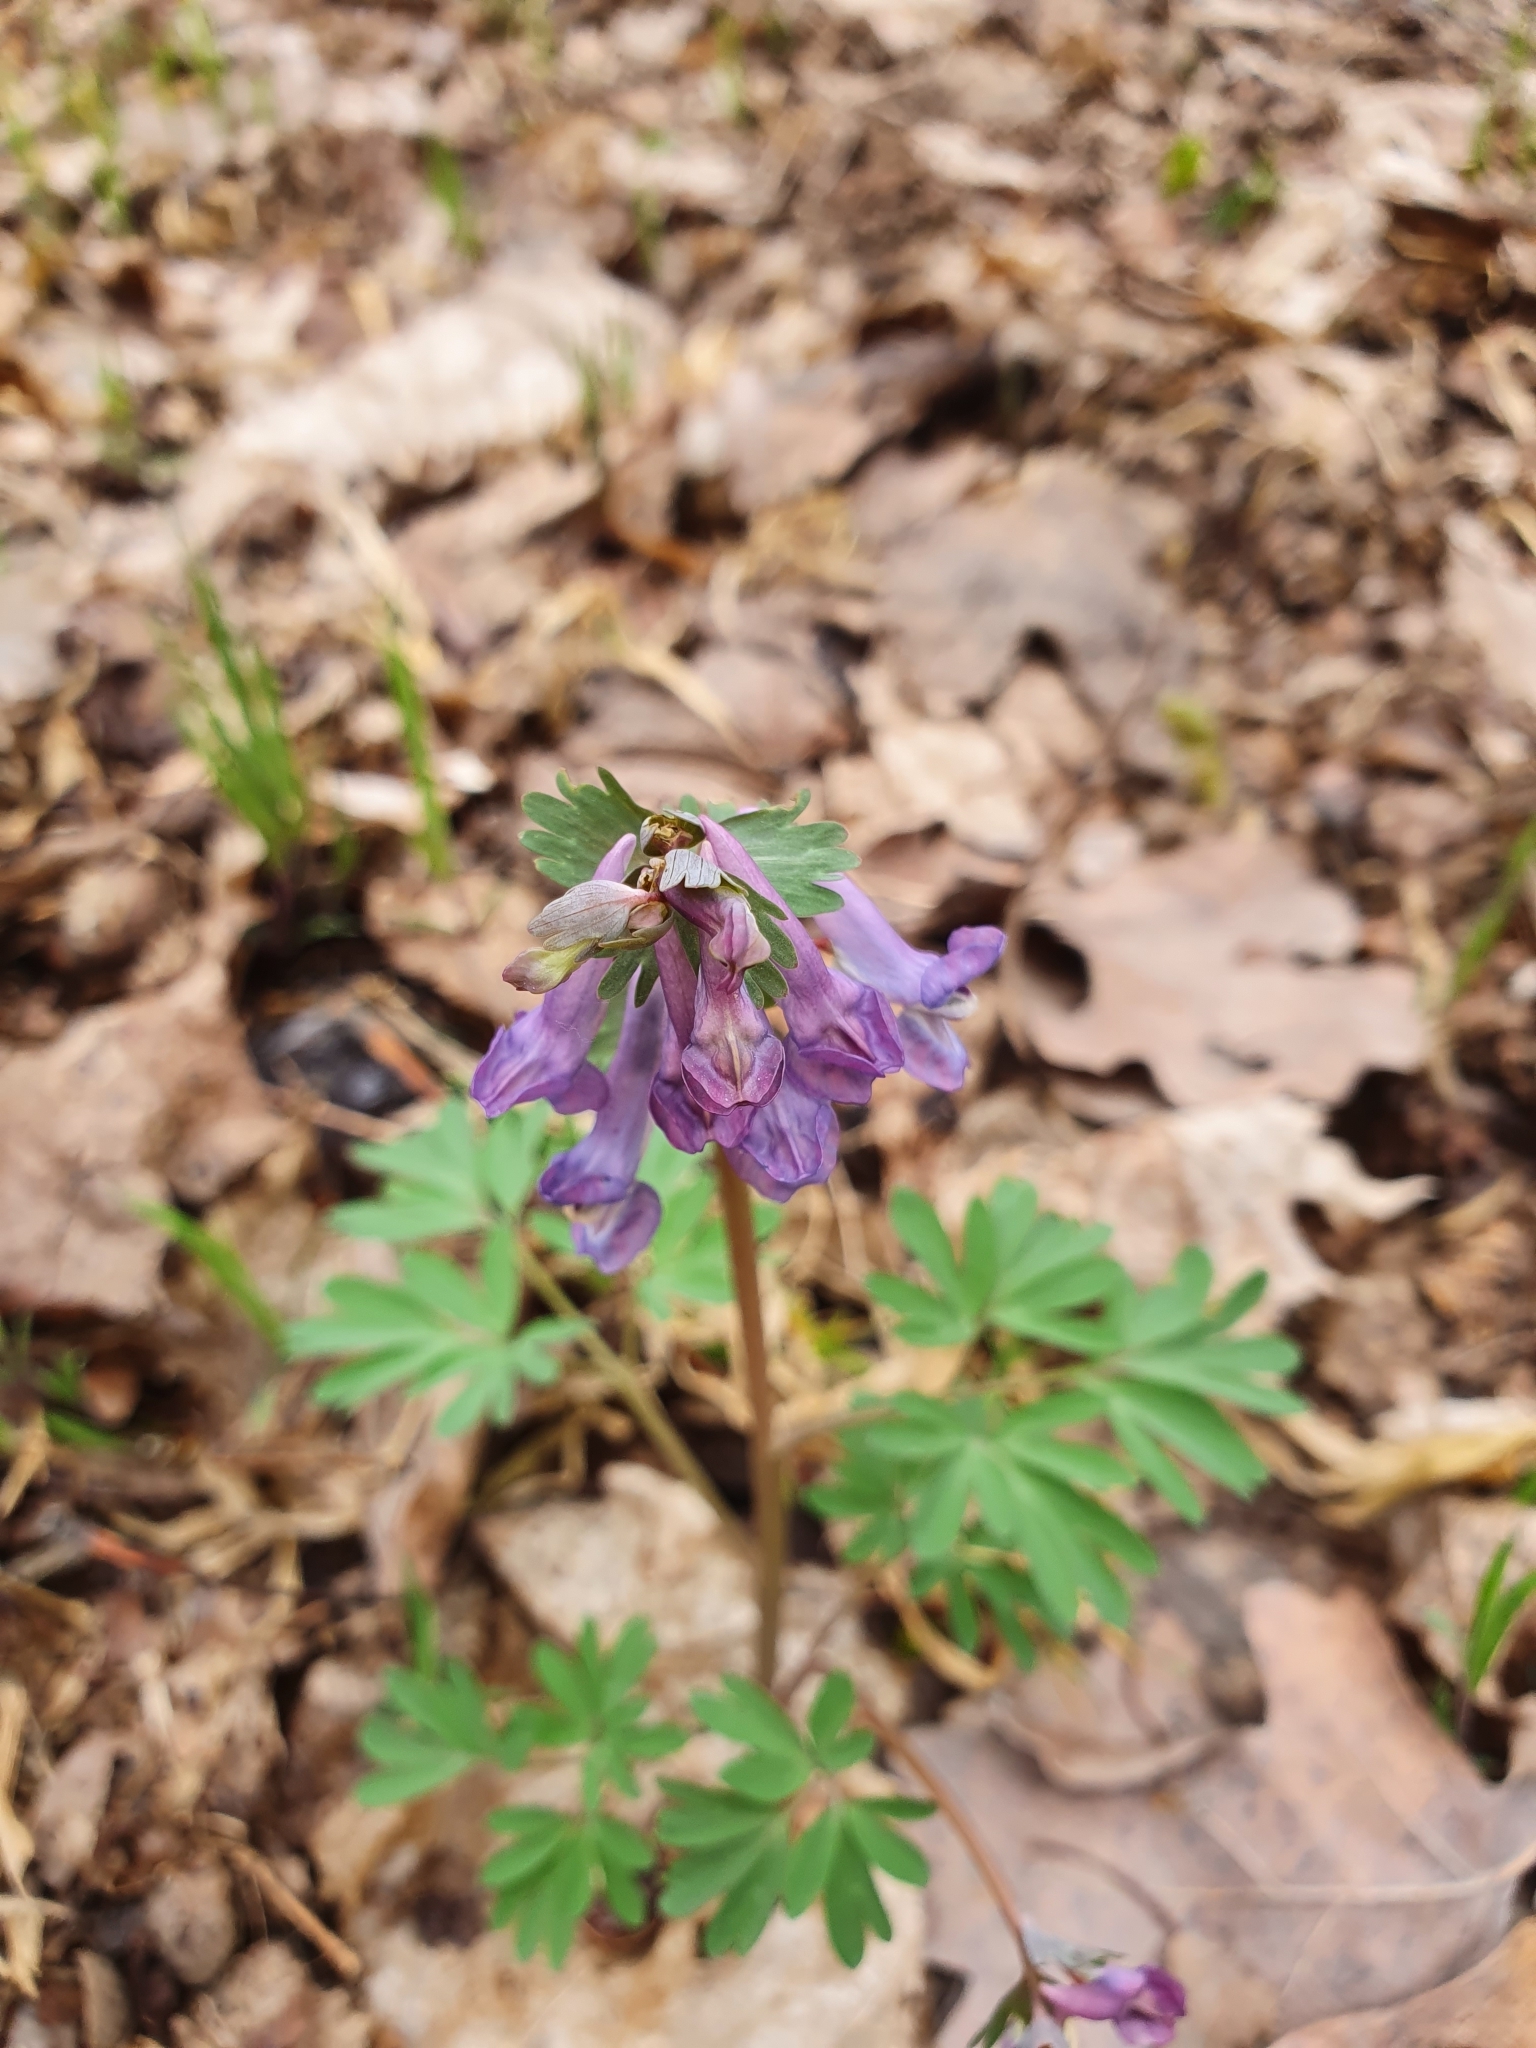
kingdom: Plantae
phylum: Tracheophyta
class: Magnoliopsida
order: Ranunculales
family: Papaveraceae
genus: Corydalis
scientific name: Corydalis solida
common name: Bird-in-a-bush
